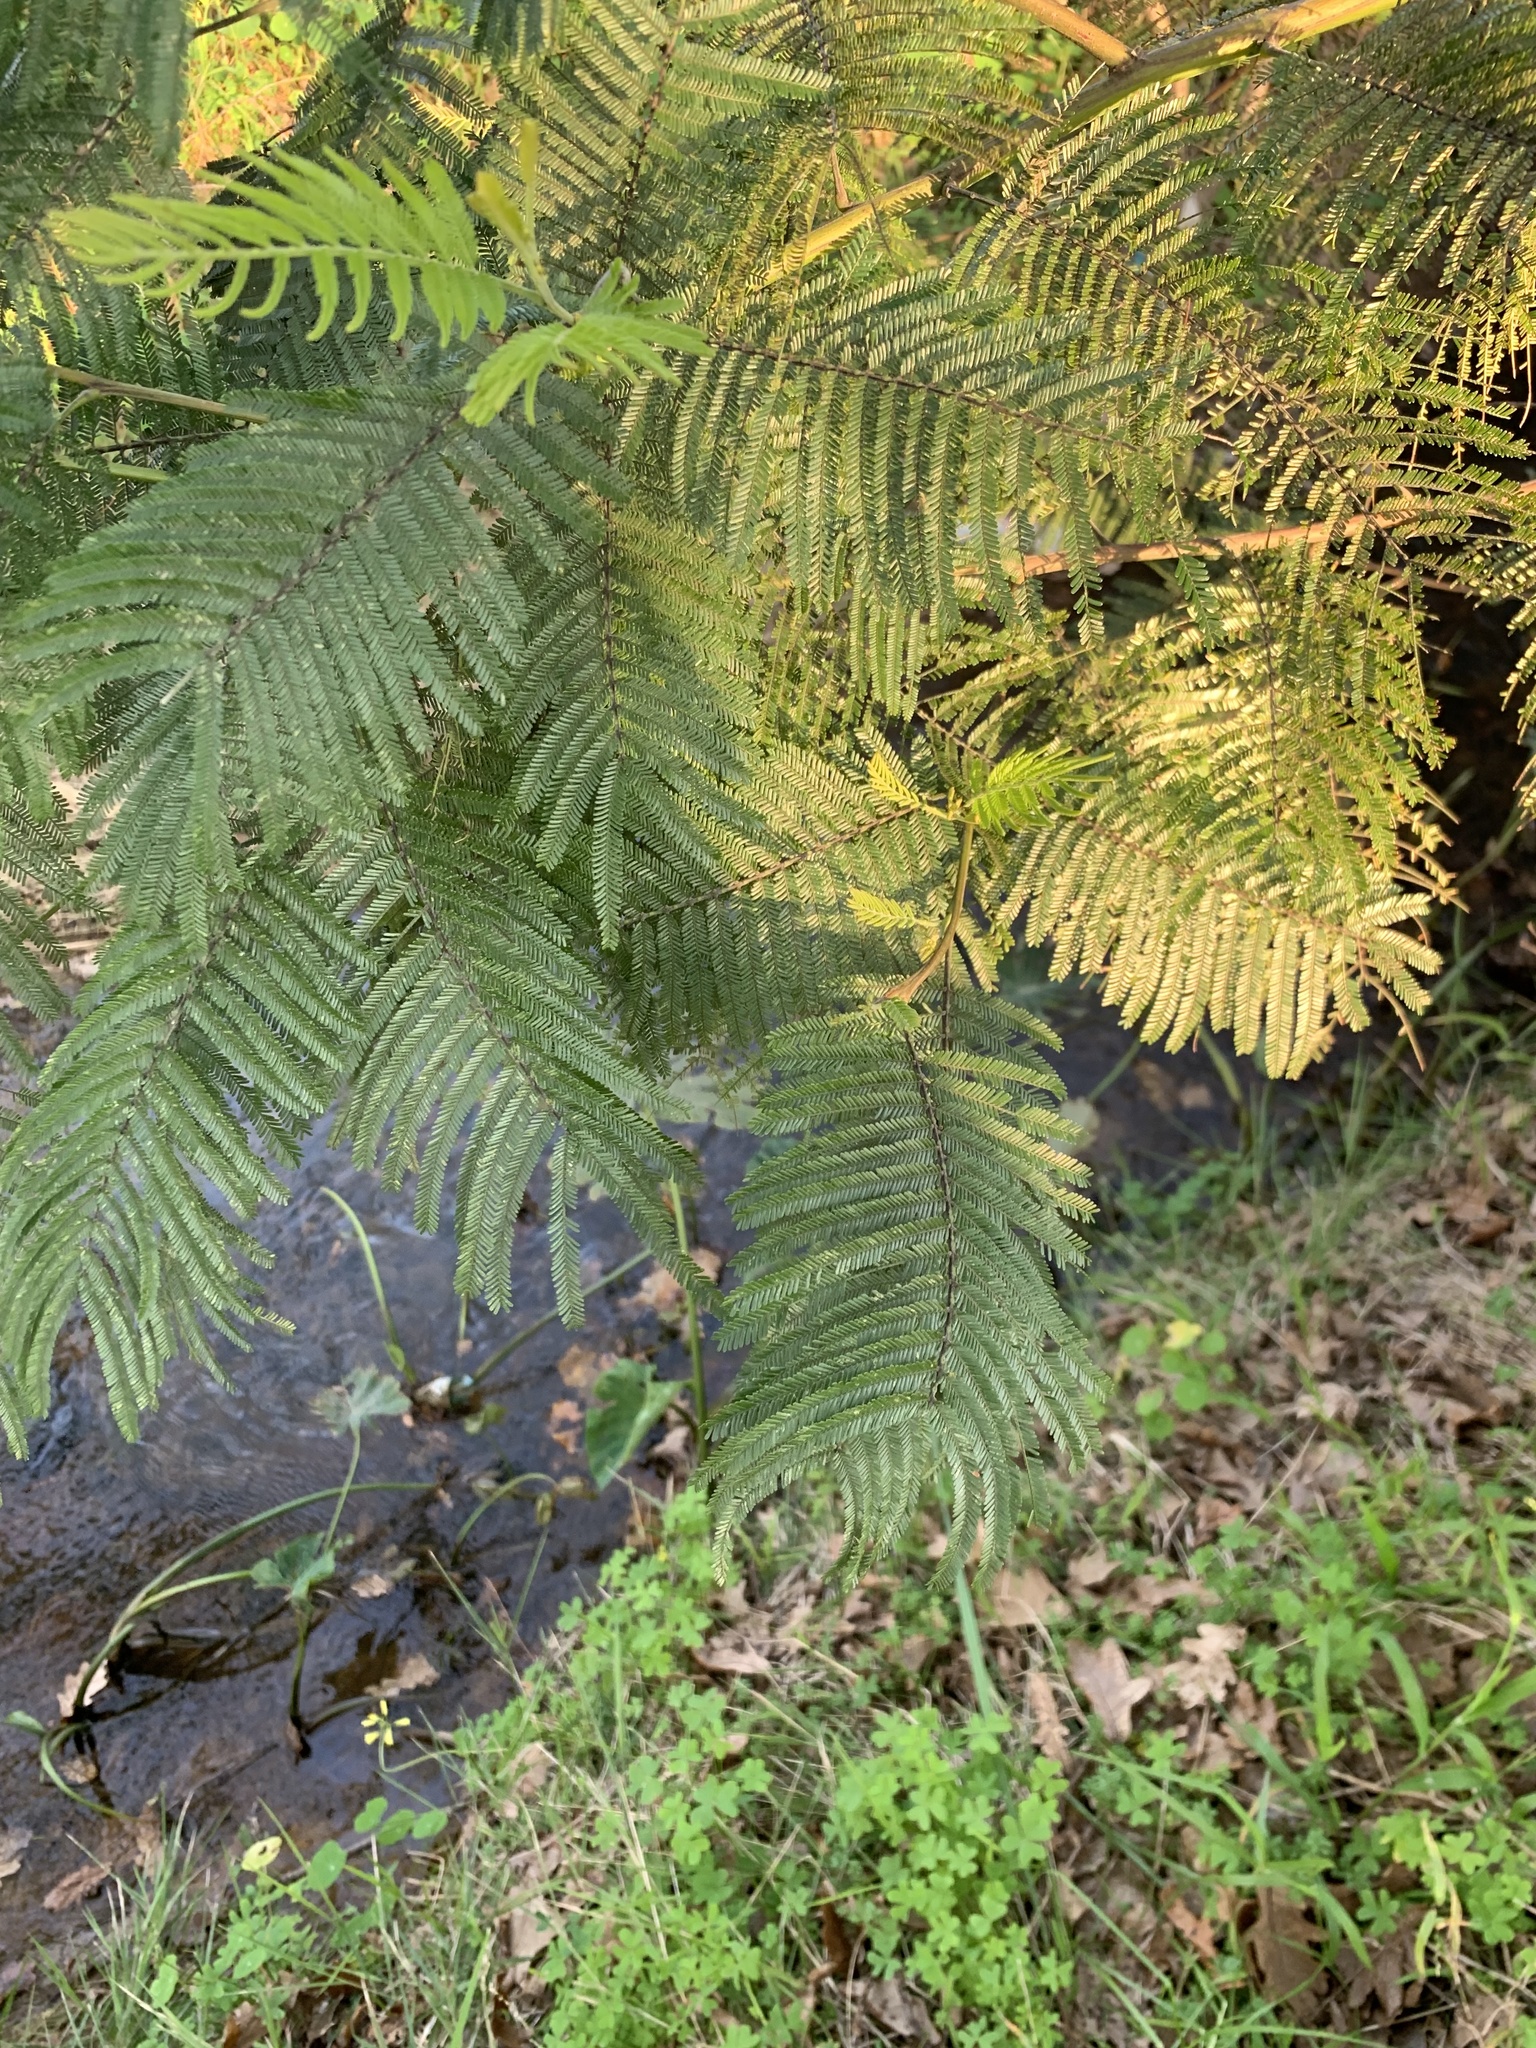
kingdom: Plantae
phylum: Tracheophyta
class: Magnoliopsida
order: Fabales
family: Fabaceae
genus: Acacia
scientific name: Acacia mearnsii
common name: Black wattle
